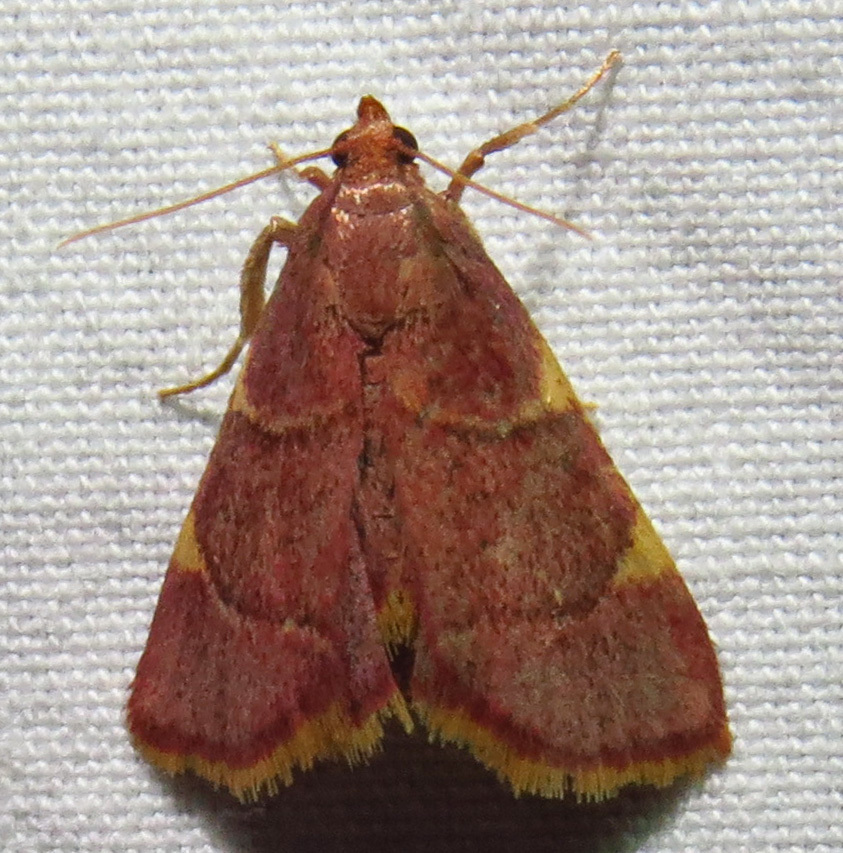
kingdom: Animalia
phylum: Arthropoda
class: Insecta
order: Lepidoptera
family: Pyralidae
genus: Hypsopygia
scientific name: Hypsopygia olinalis
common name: Yellow-fringed dolichomia moth
